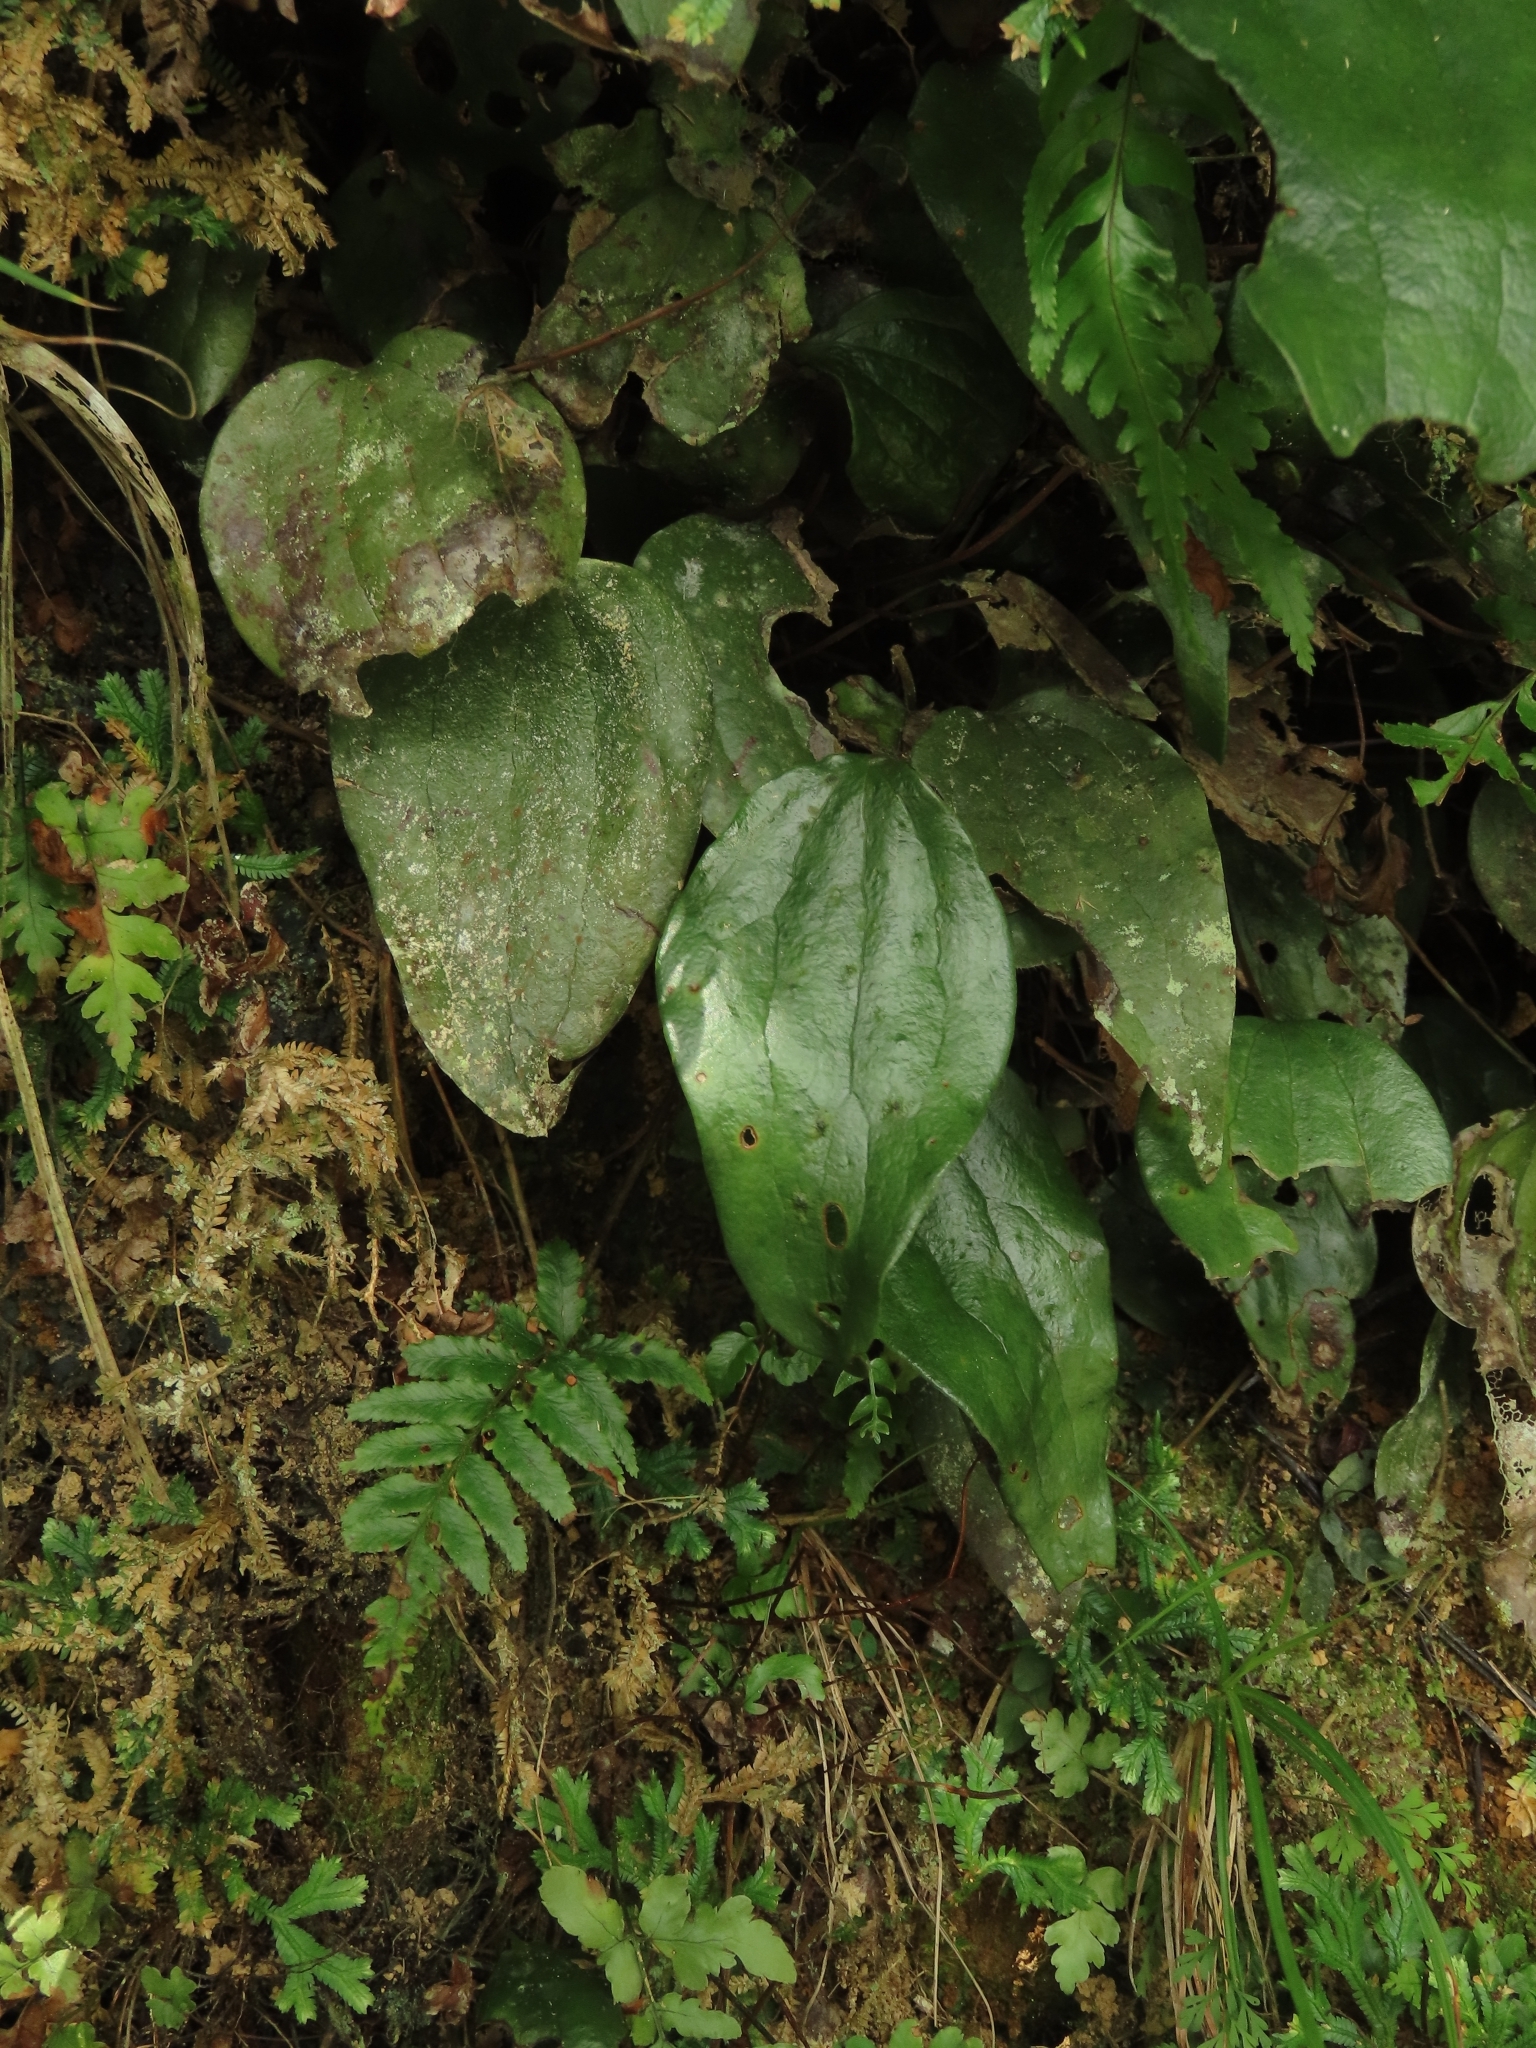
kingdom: Plantae
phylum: Tracheophyta
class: Polypodiopsida
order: Gleicheniales
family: Dipteridaceae
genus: Cheiropleuria
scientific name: Cheiropleuria integrifolia
